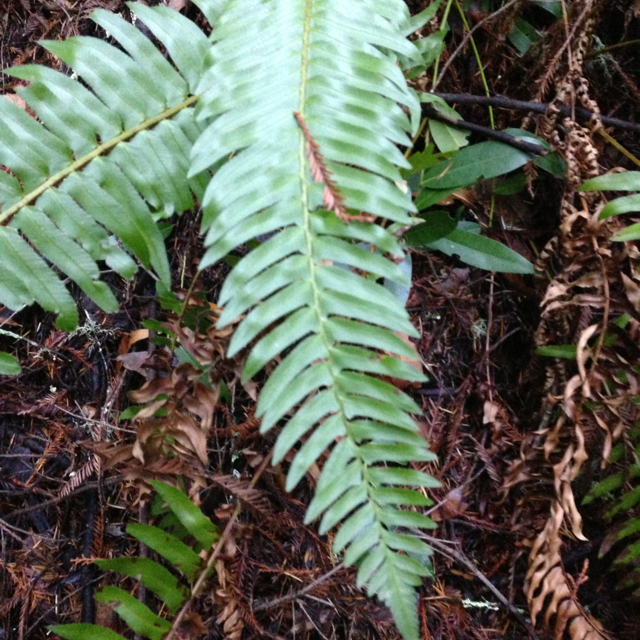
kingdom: Plantae
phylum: Tracheophyta
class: Polypodiopsida
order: Polypodiales
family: Dryopteridaceae
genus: Polystichum
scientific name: Polystichum munitum
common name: Western sword-fern
